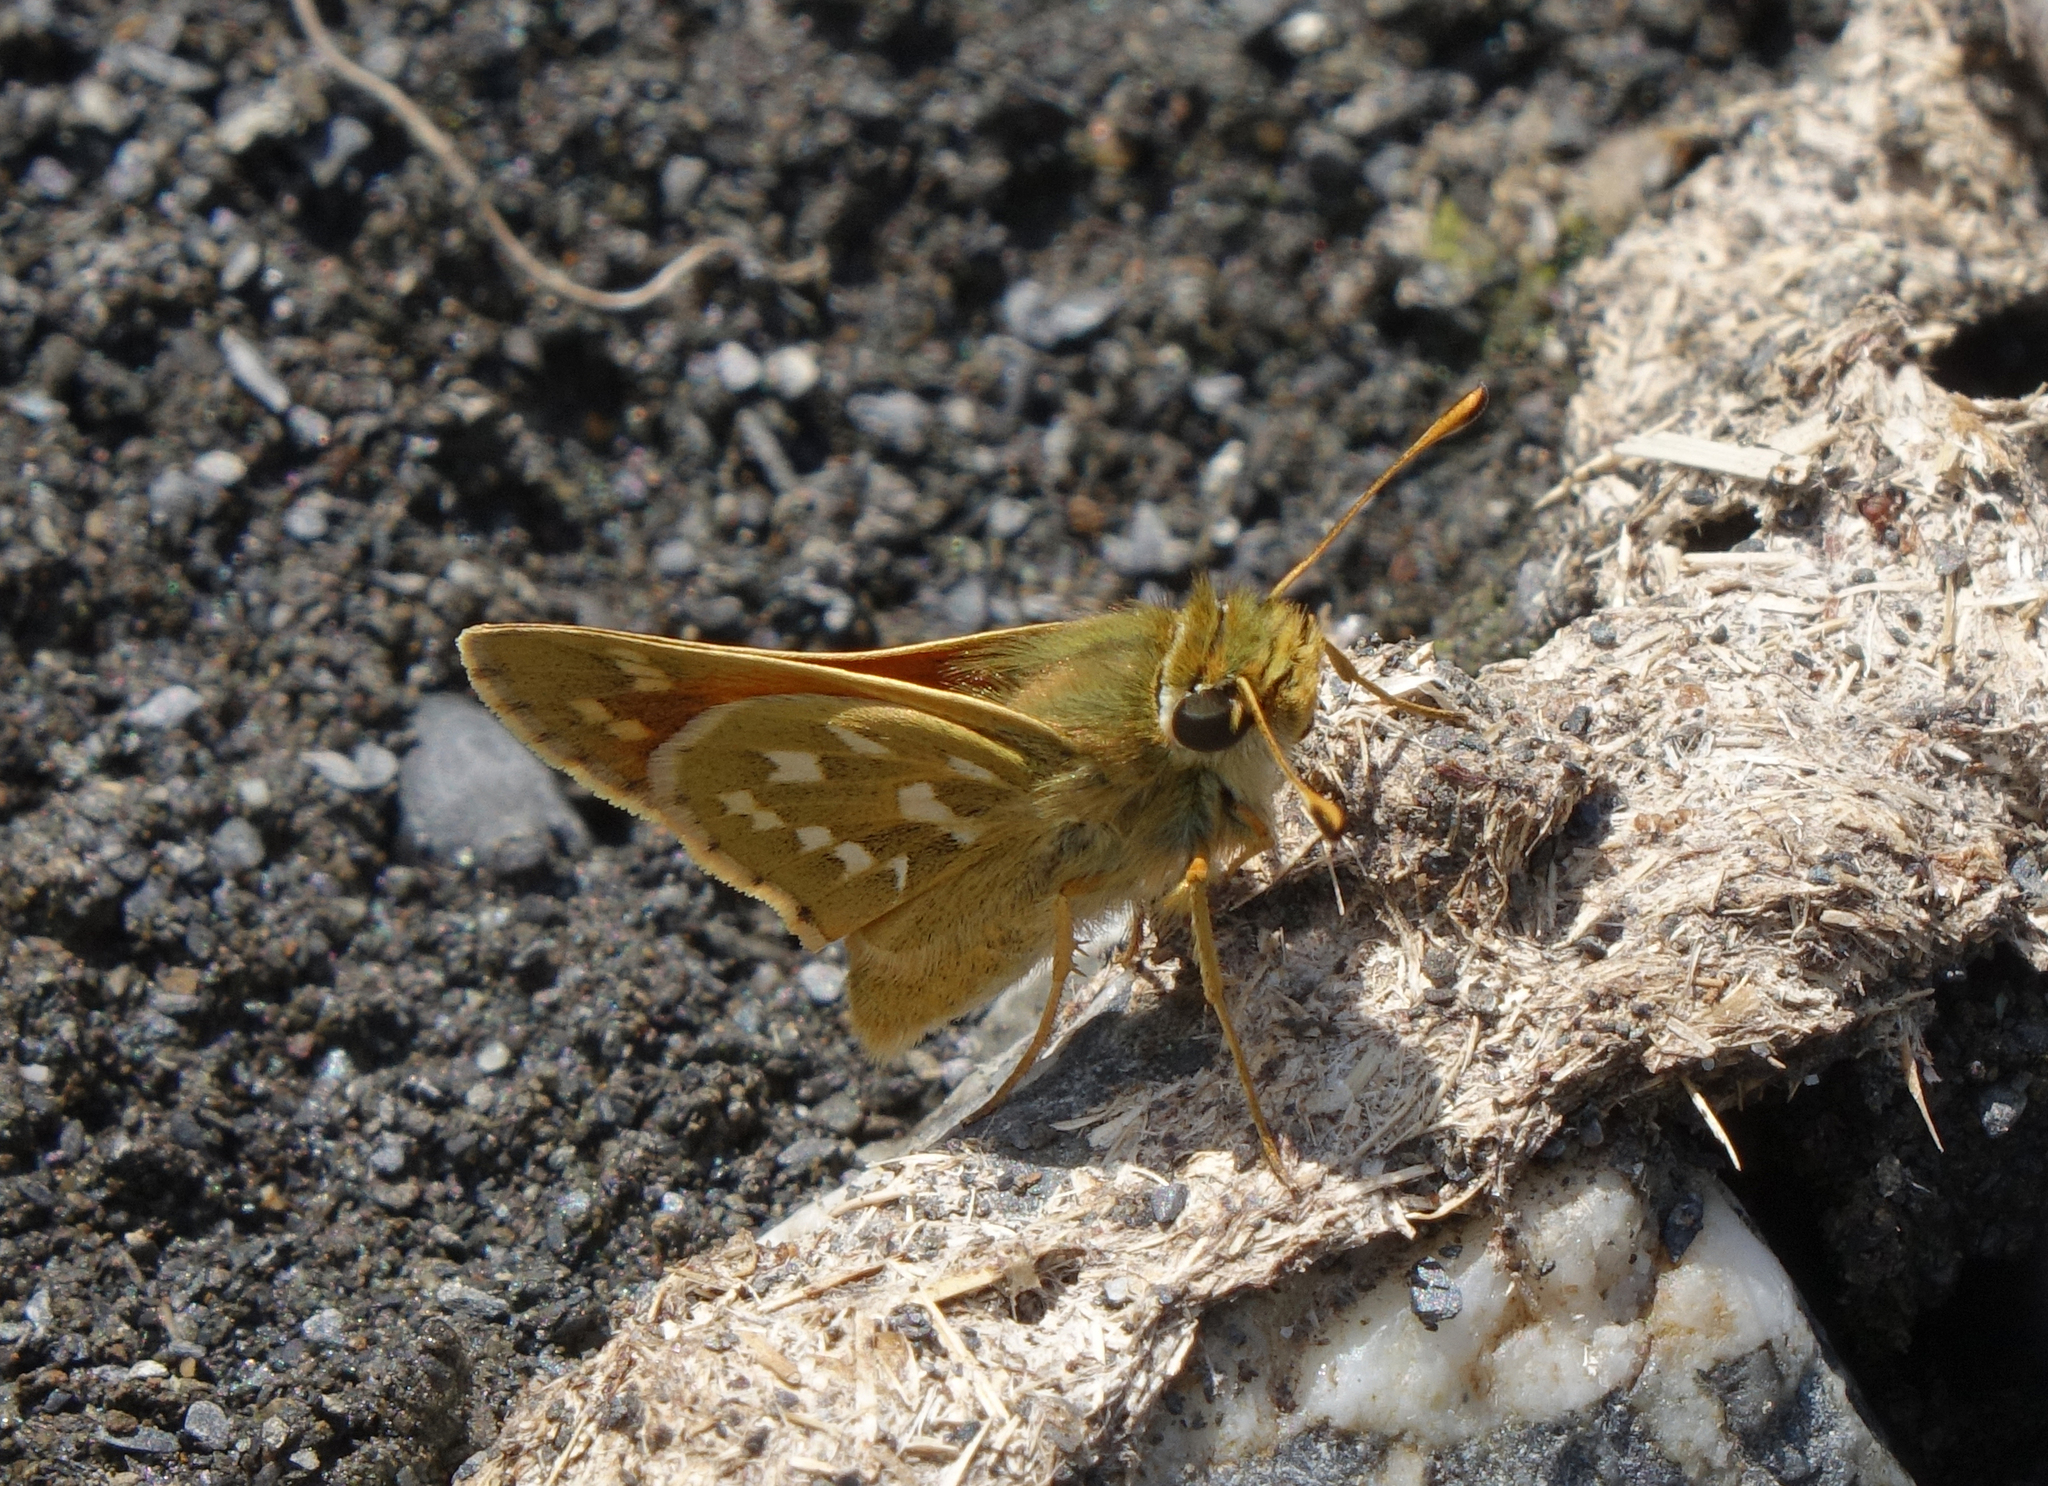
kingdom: Animalia
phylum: Arthropoda
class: Insecta
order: Lepidoptera
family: Hesperiidae
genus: Hesperia
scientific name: Hesperia comma
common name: Common branded skipper
